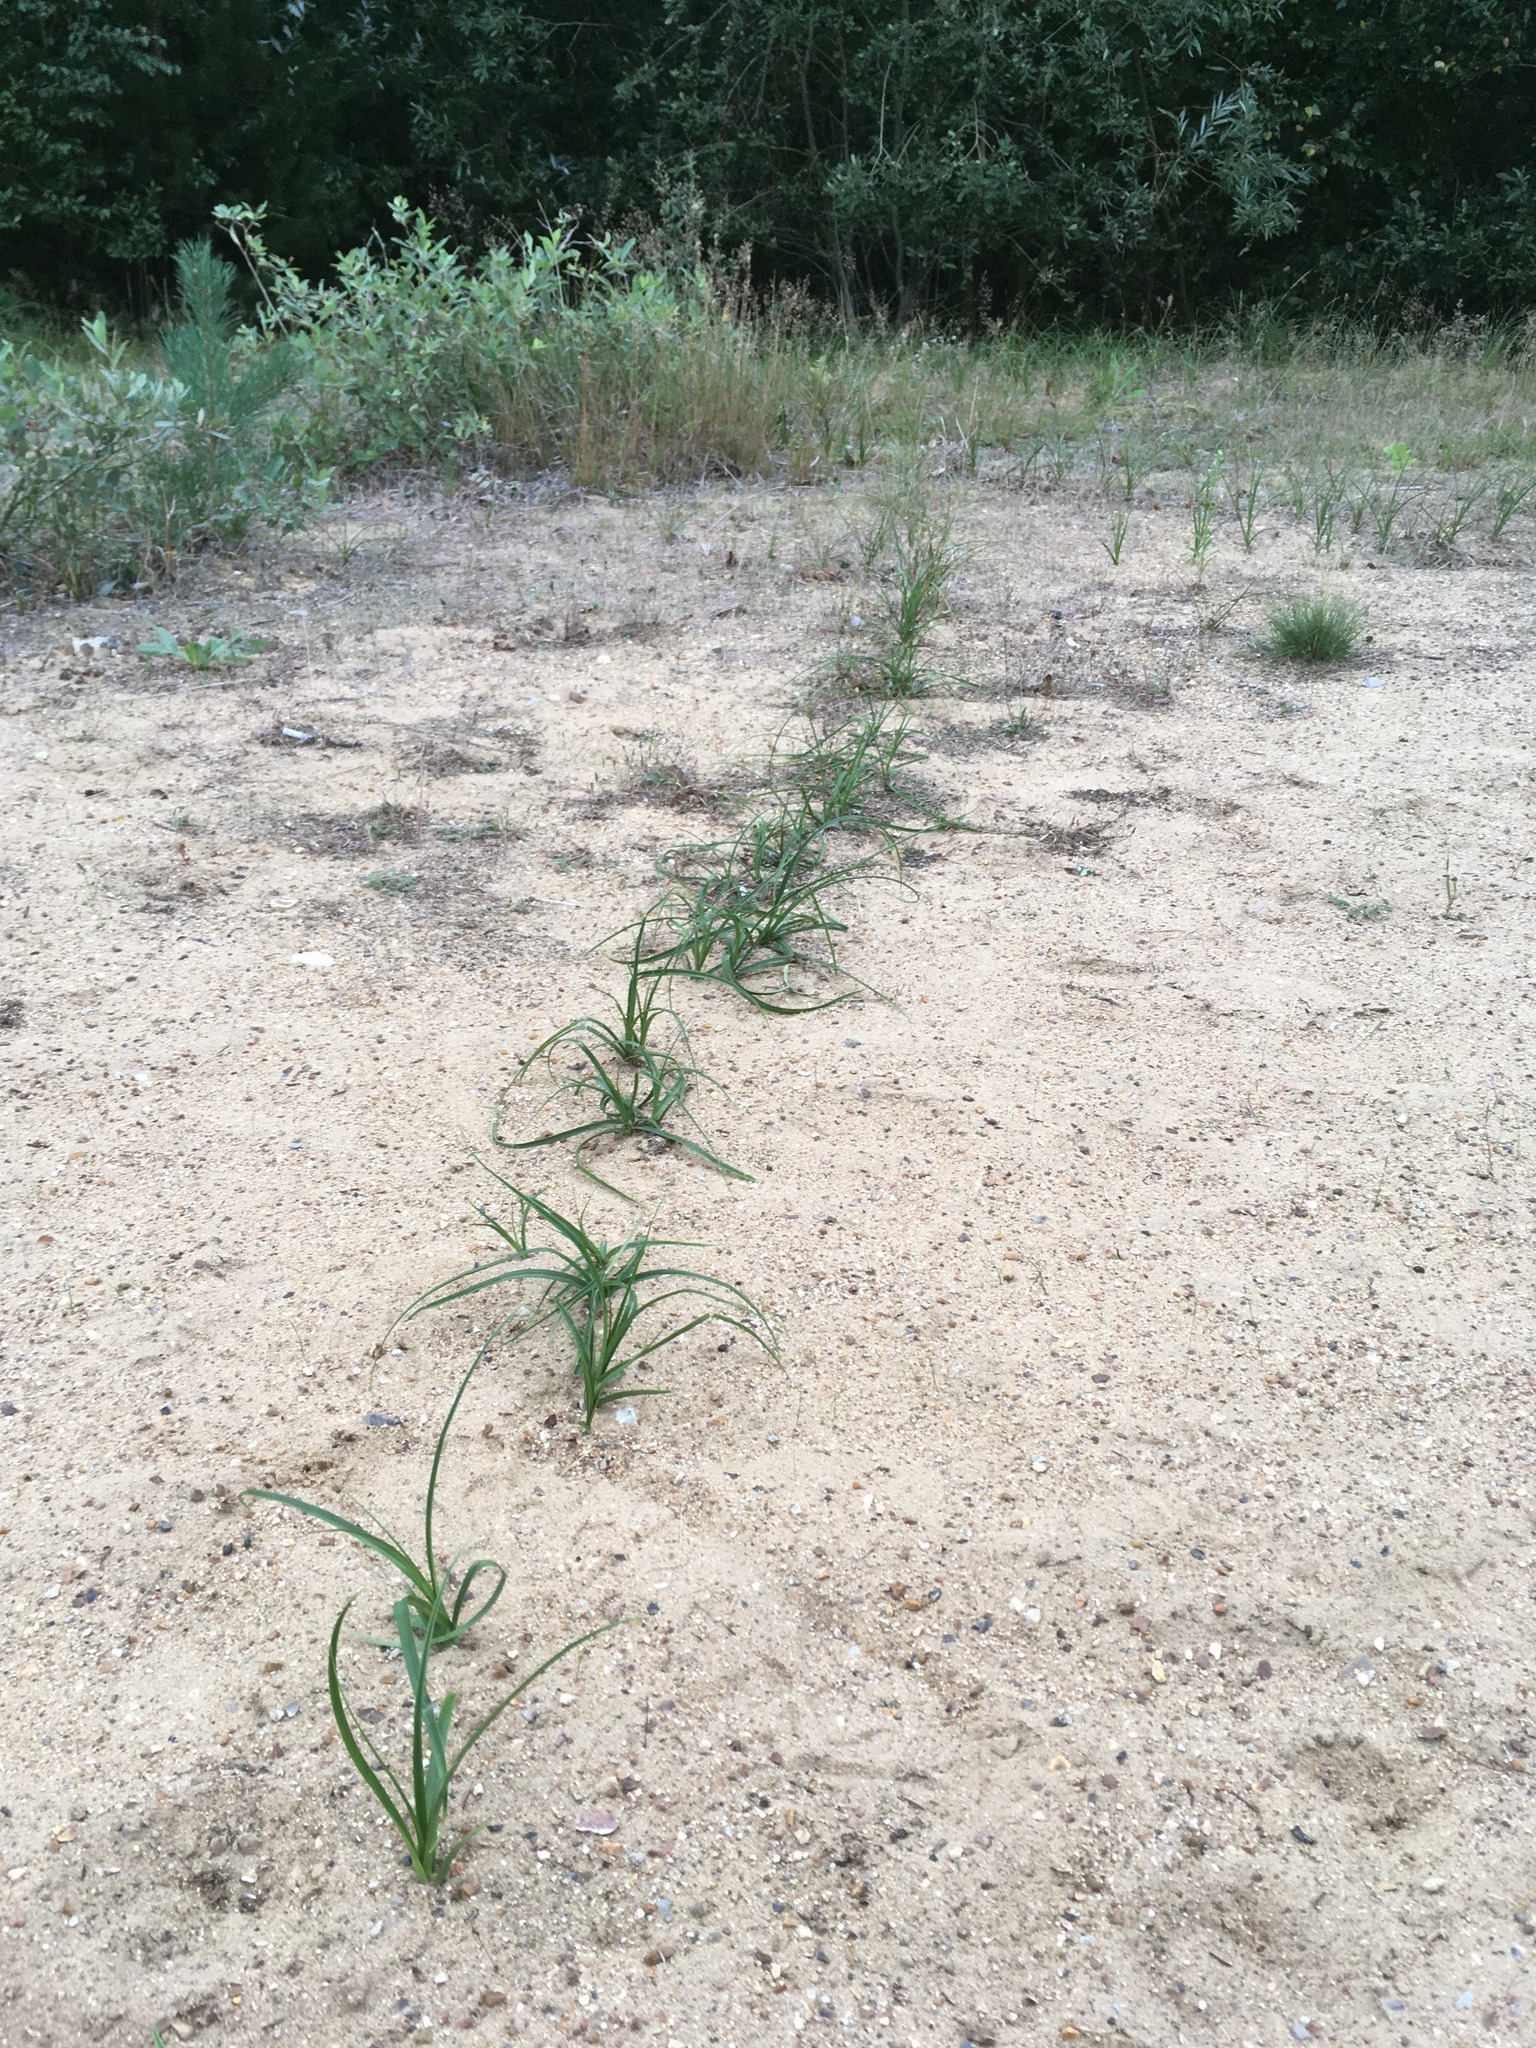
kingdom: Plantae
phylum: Tracheophyta
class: Liliopsida
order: Poales
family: Cyperaceae
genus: Carex
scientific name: Carex arenaria
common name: Sand sedge
